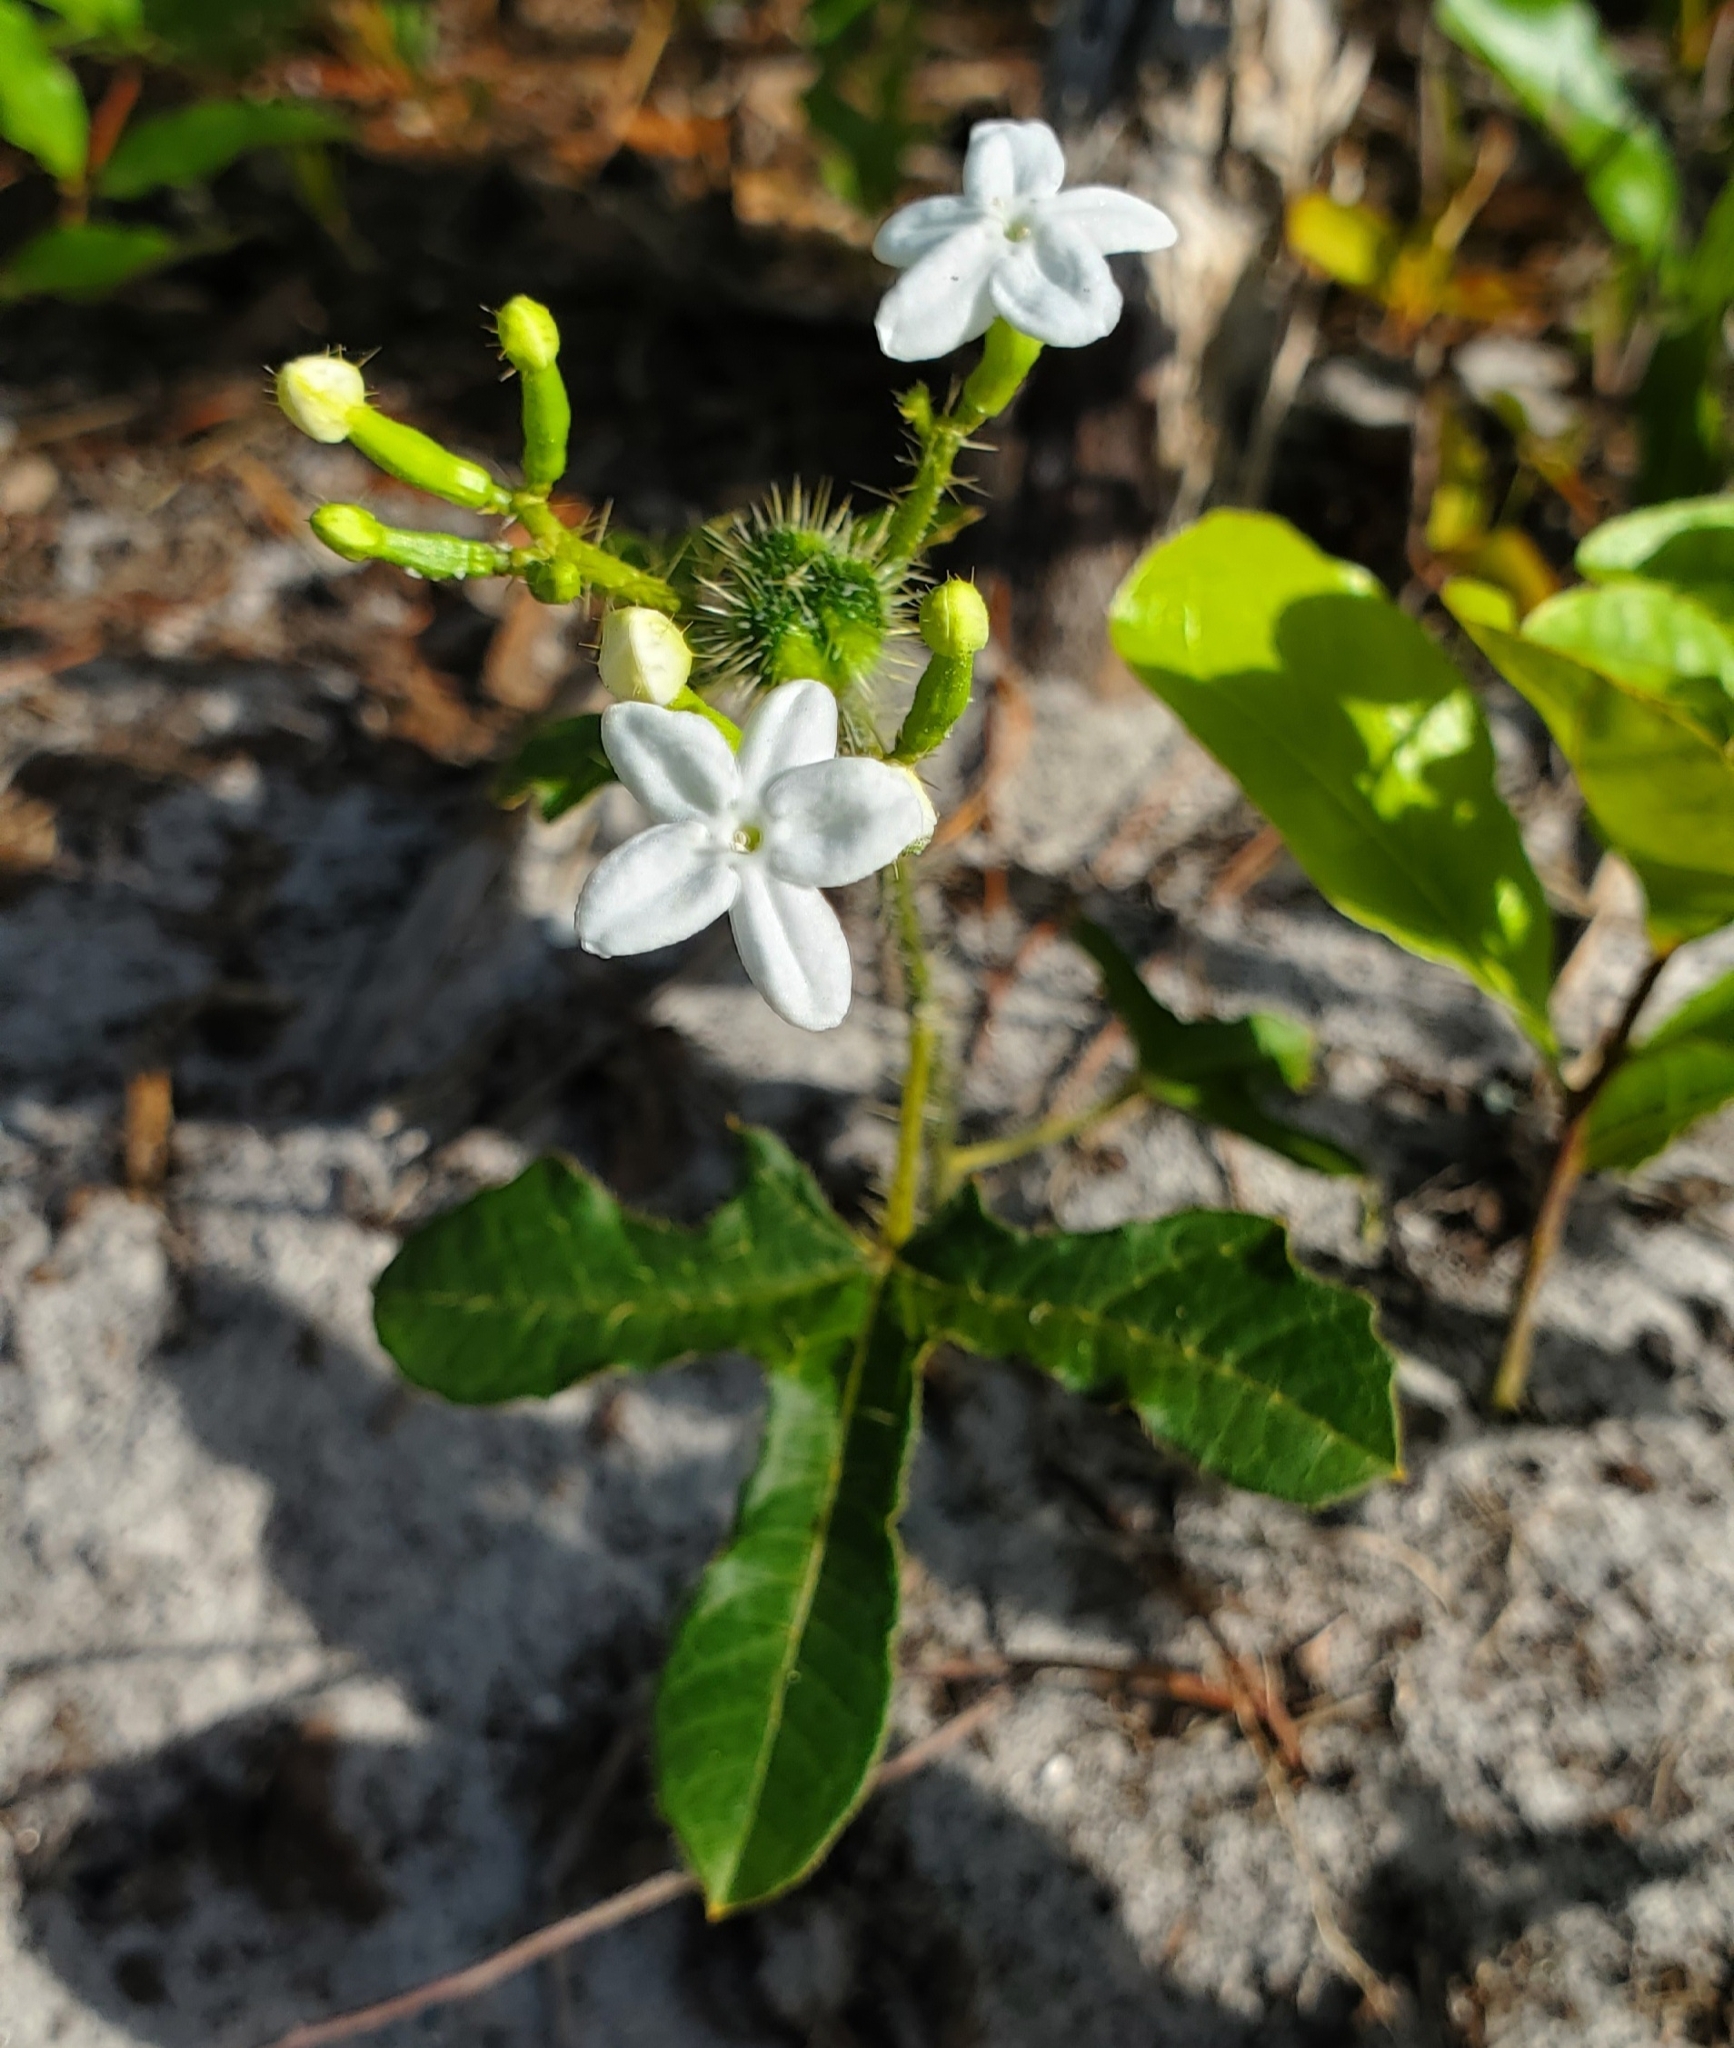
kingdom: Plantae
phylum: Tracheophyta
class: Magnoliopsida
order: Malpighiales
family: Euphorbiaceae
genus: Cnidoscolus
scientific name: Cnidoscolus stimulosus
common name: Bull-nettle
